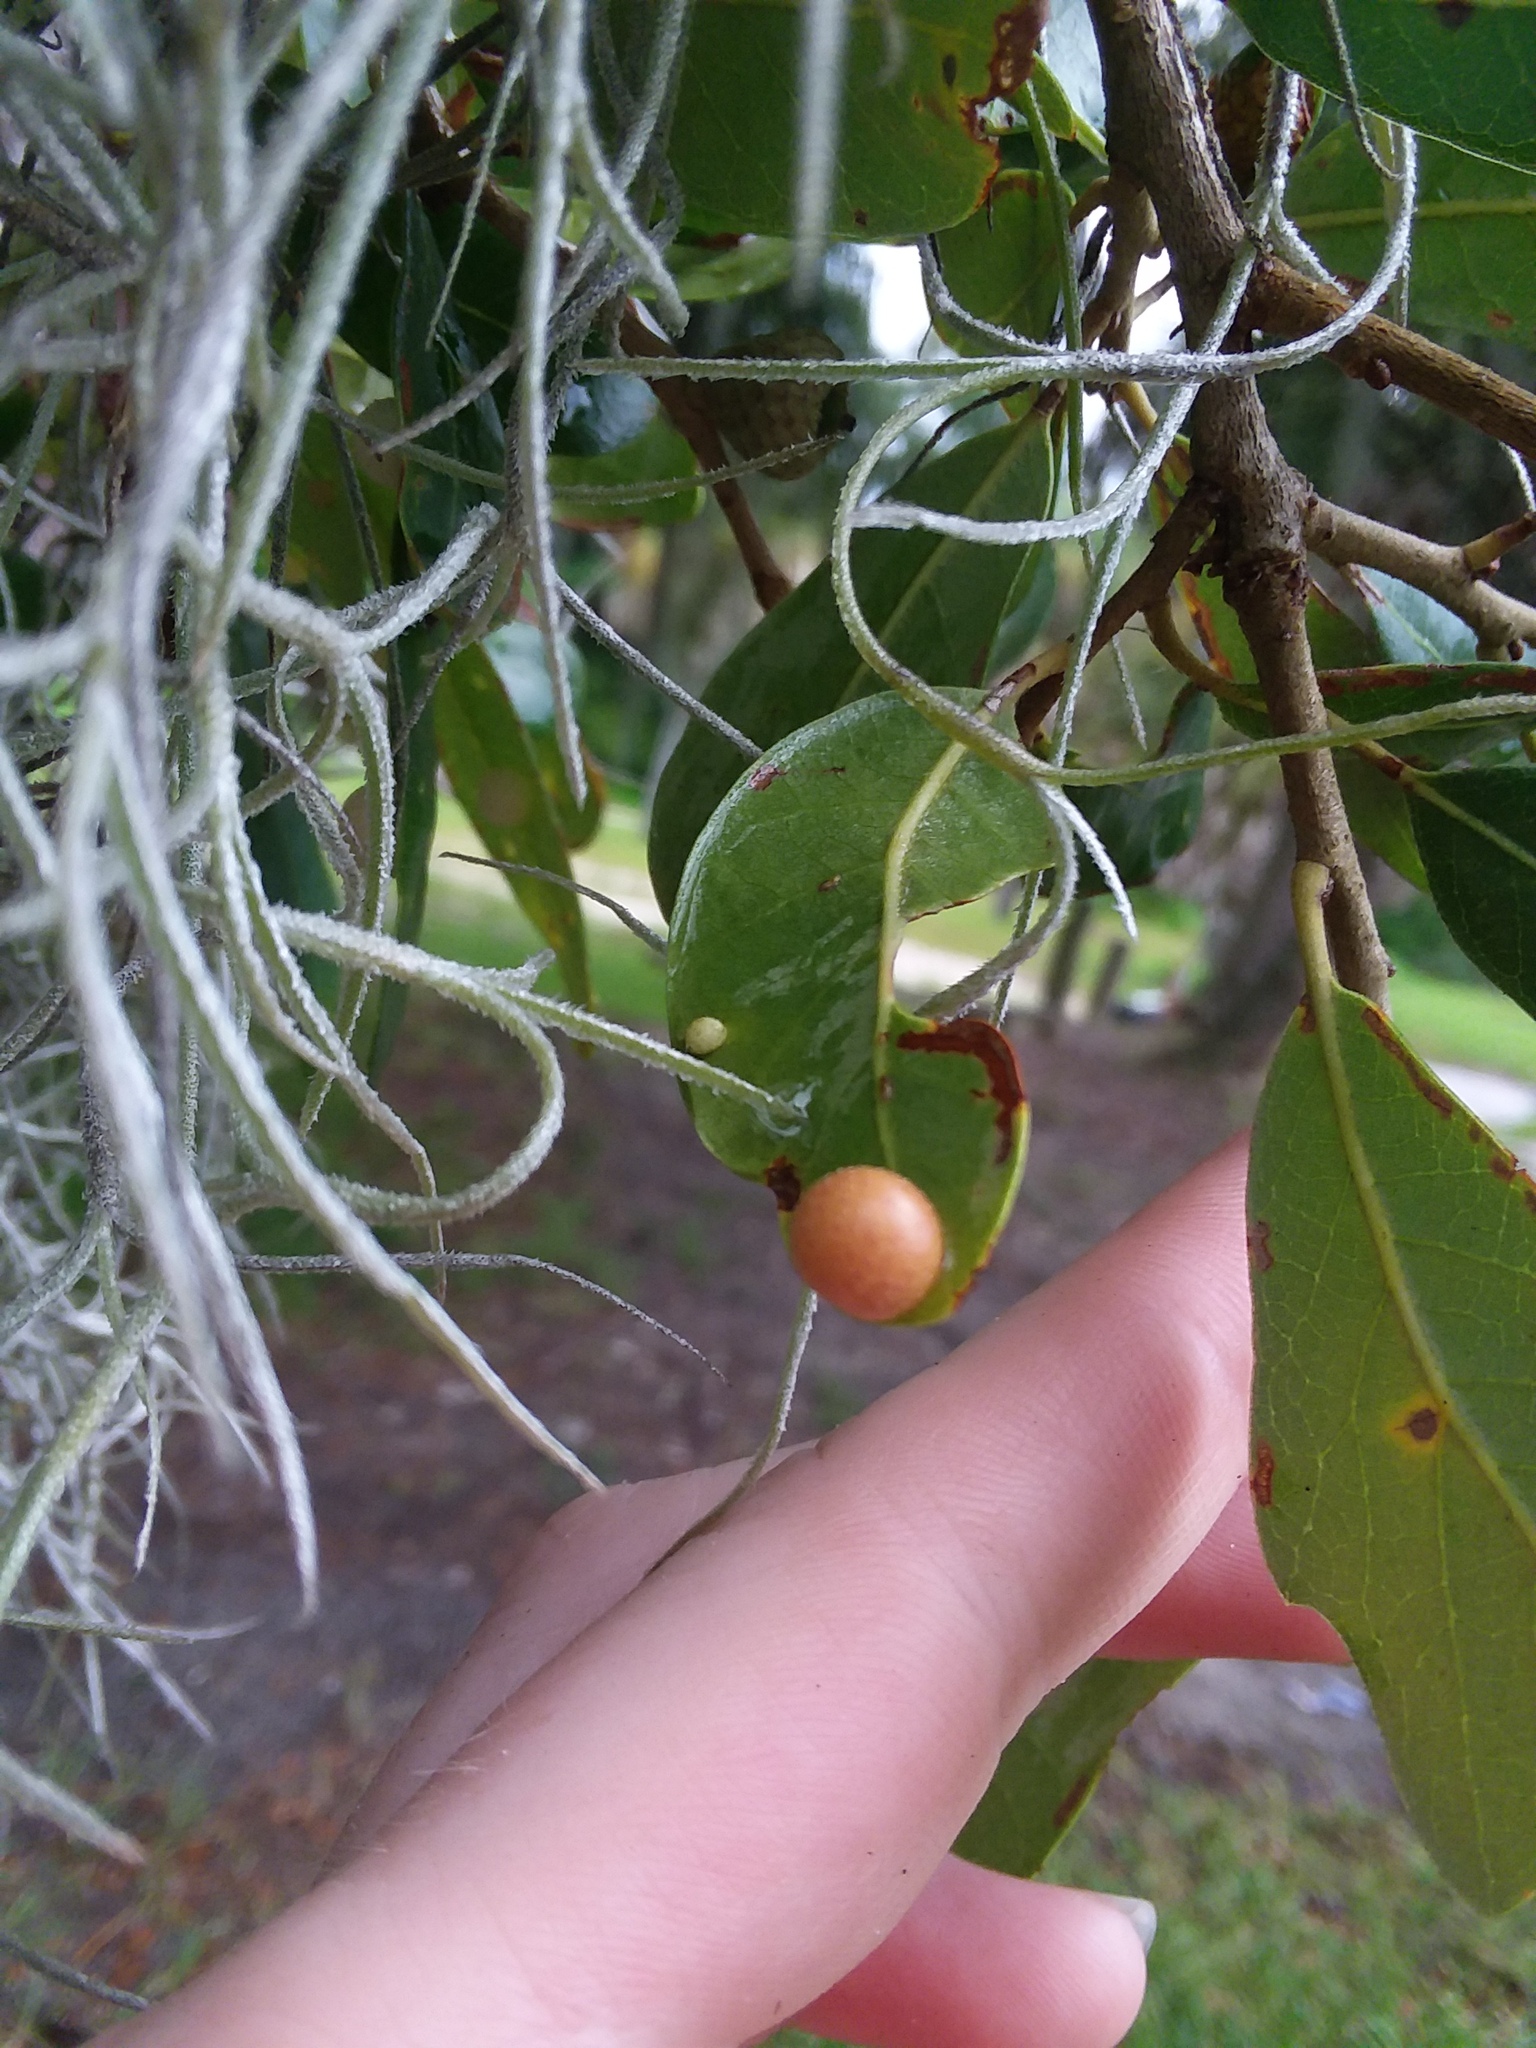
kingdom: Animalia
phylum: Arthropoda
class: Insecta
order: Hymenoptera
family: Cynipidae
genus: Belonocnema
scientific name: Belonocnema treatae
